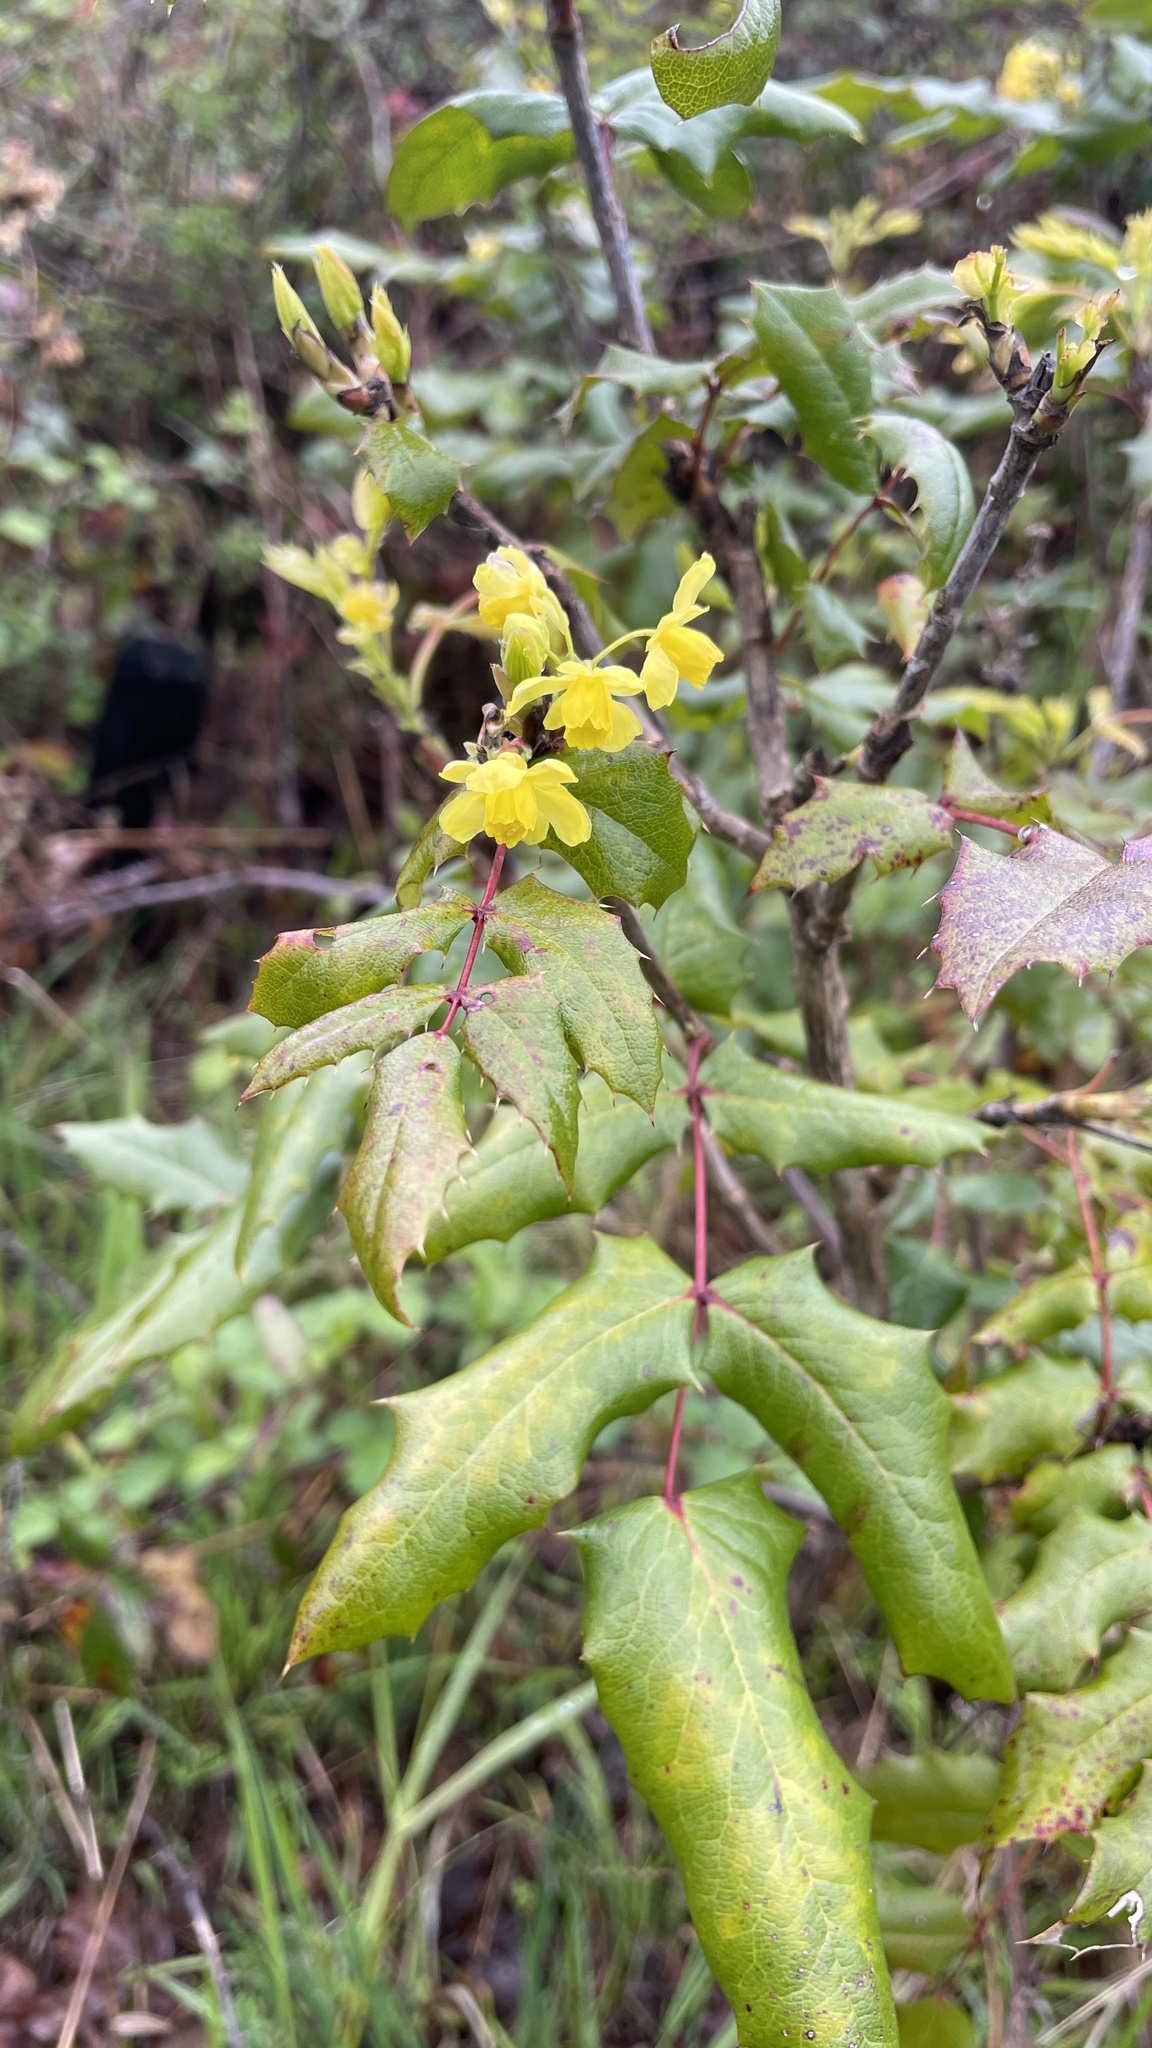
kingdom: Plantae
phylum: Tracheophyta
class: Magnoliopsida
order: Ranunculales
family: Berberidaceae
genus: Mahonia
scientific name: Mahonia aquifolium
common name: Oregon-grape
